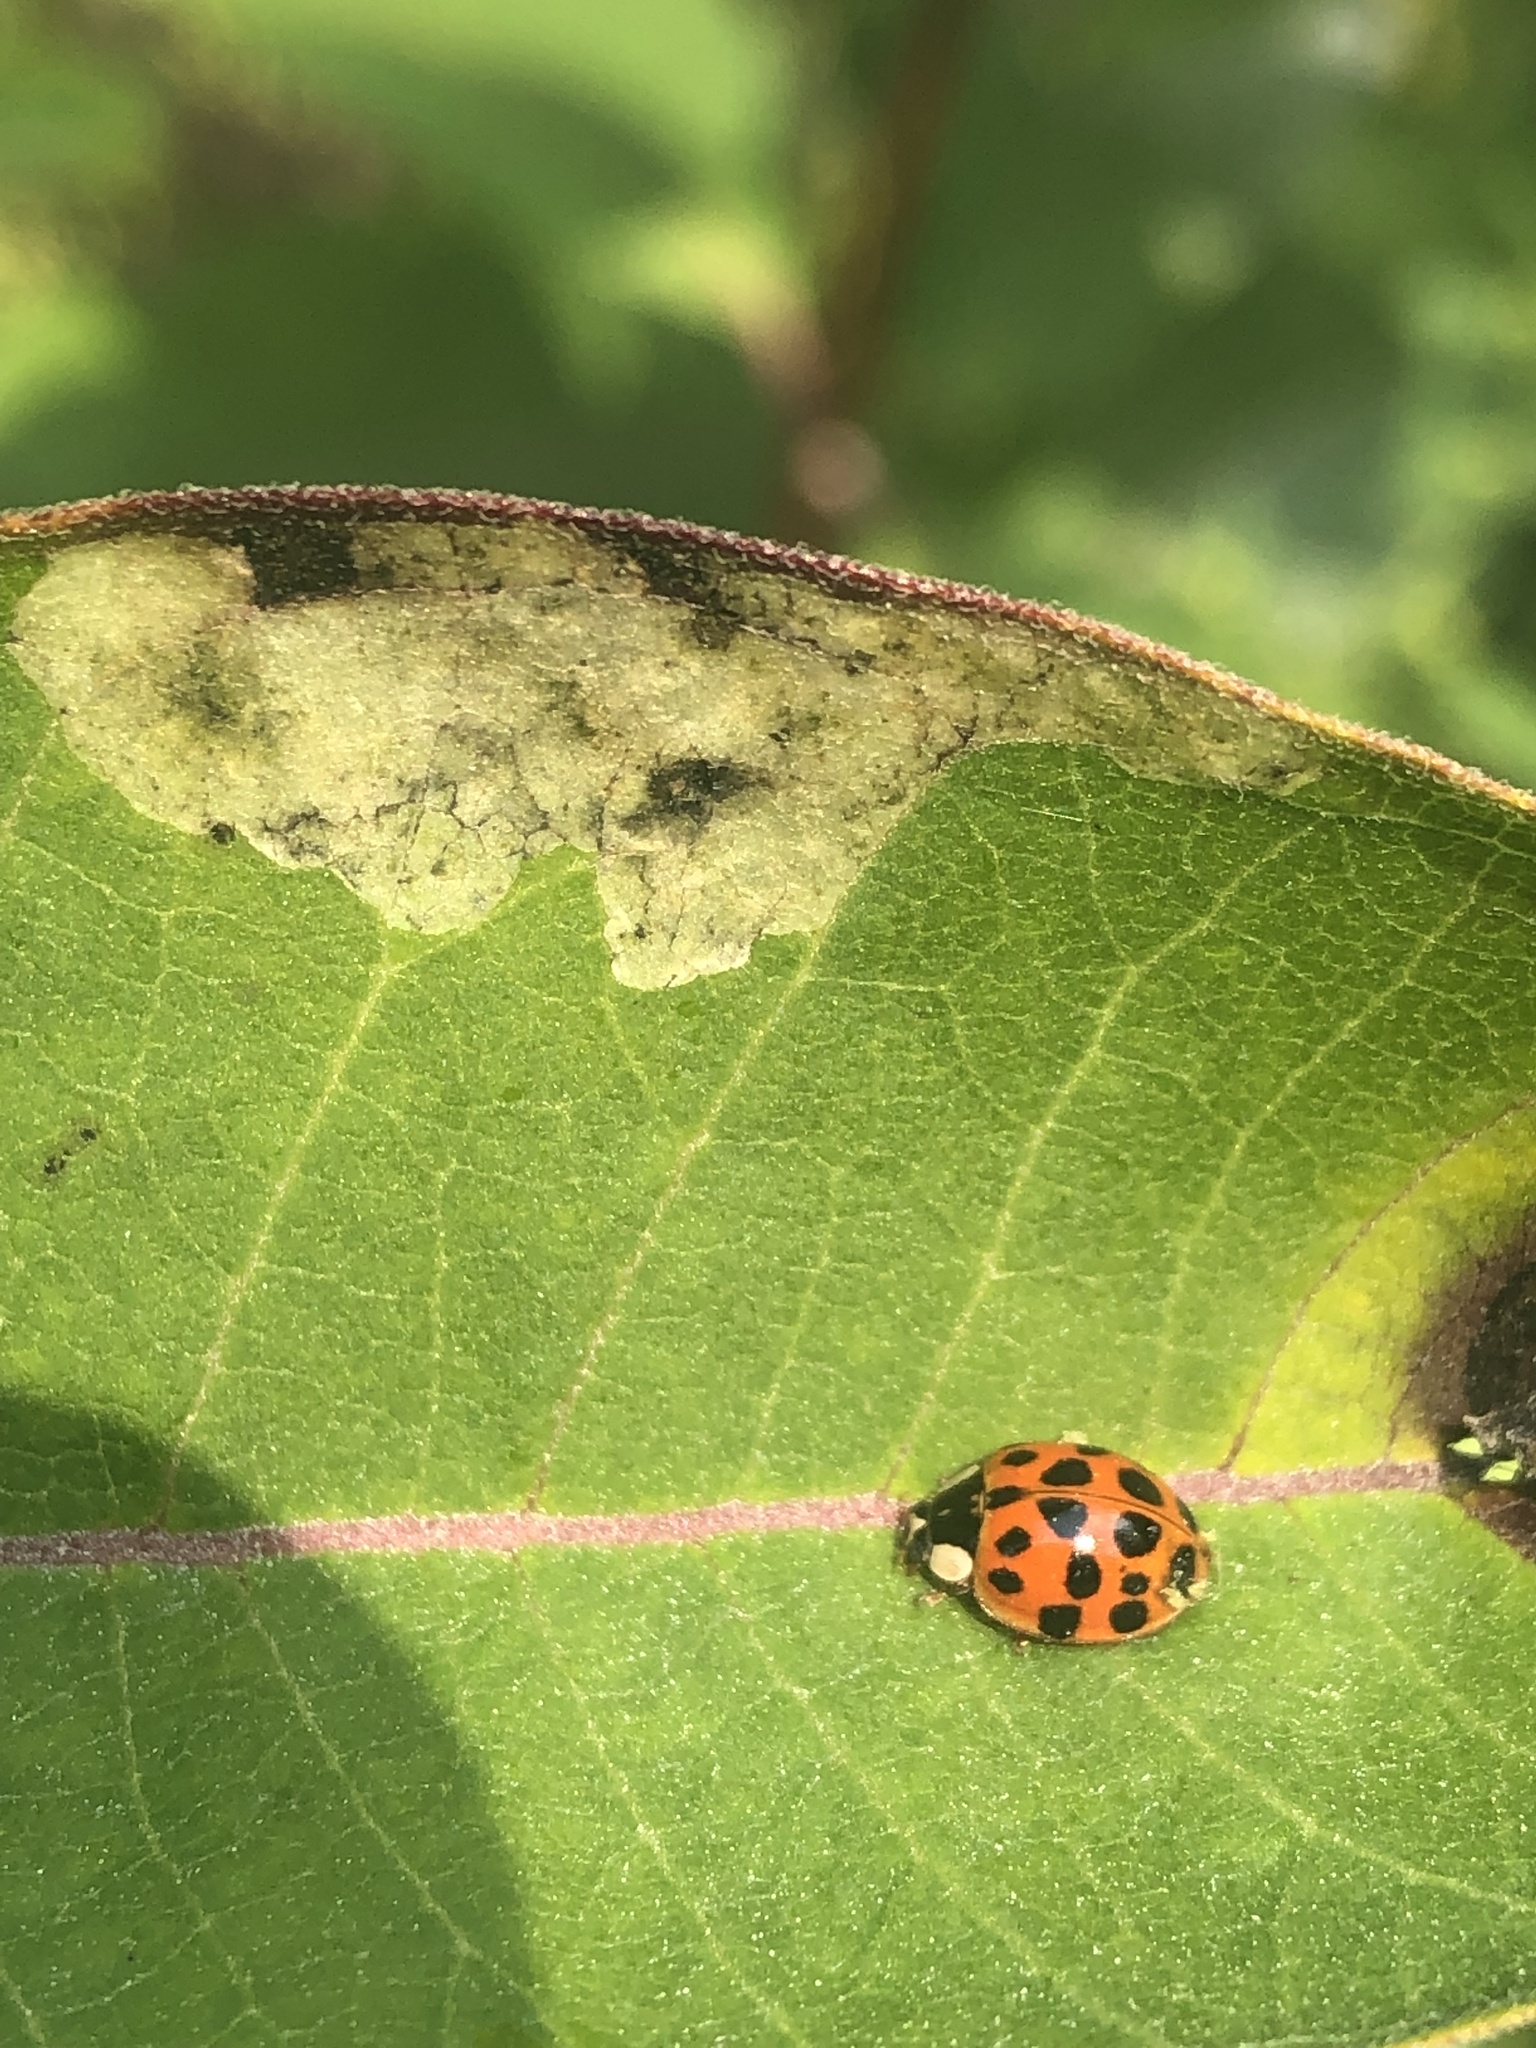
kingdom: Animalia
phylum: Arthropoda
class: Insecta
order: Coleoptera
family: Coccinellidae
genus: Harmonia
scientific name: Harmonia axyridis
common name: Harlequin ladybird
